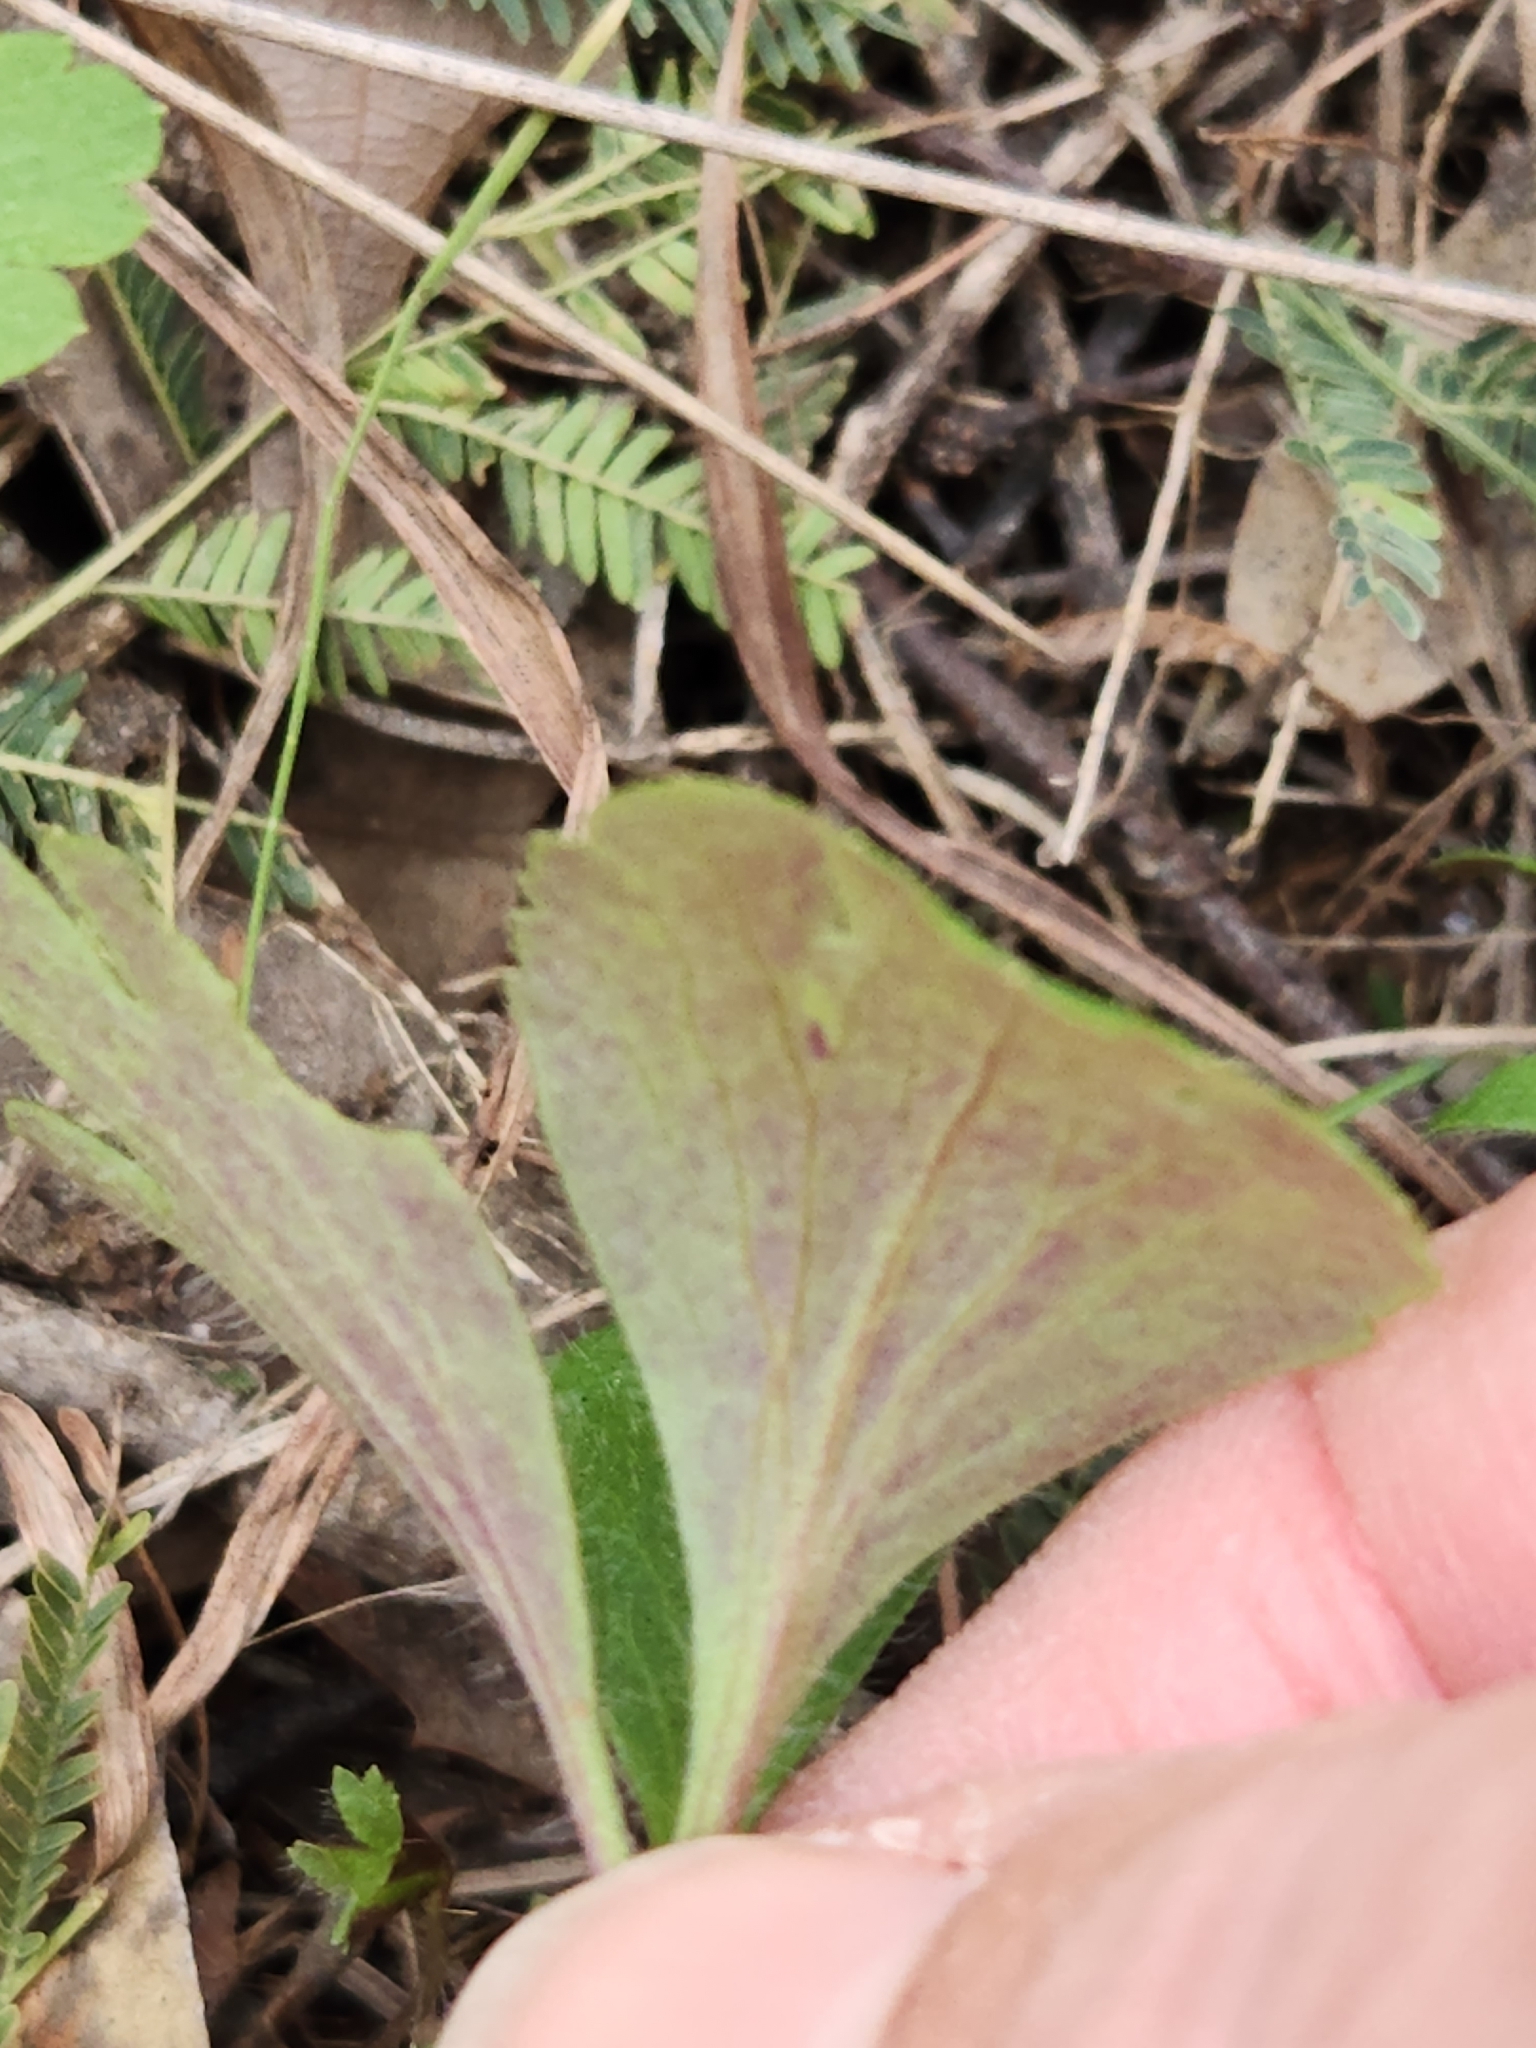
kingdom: Plantae
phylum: Tracheophyta
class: Magnoliopsida
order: Ranunculales
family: Ranunculaceae
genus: Anemone
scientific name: Anemone berlandieri
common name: Ten-petal anemone
